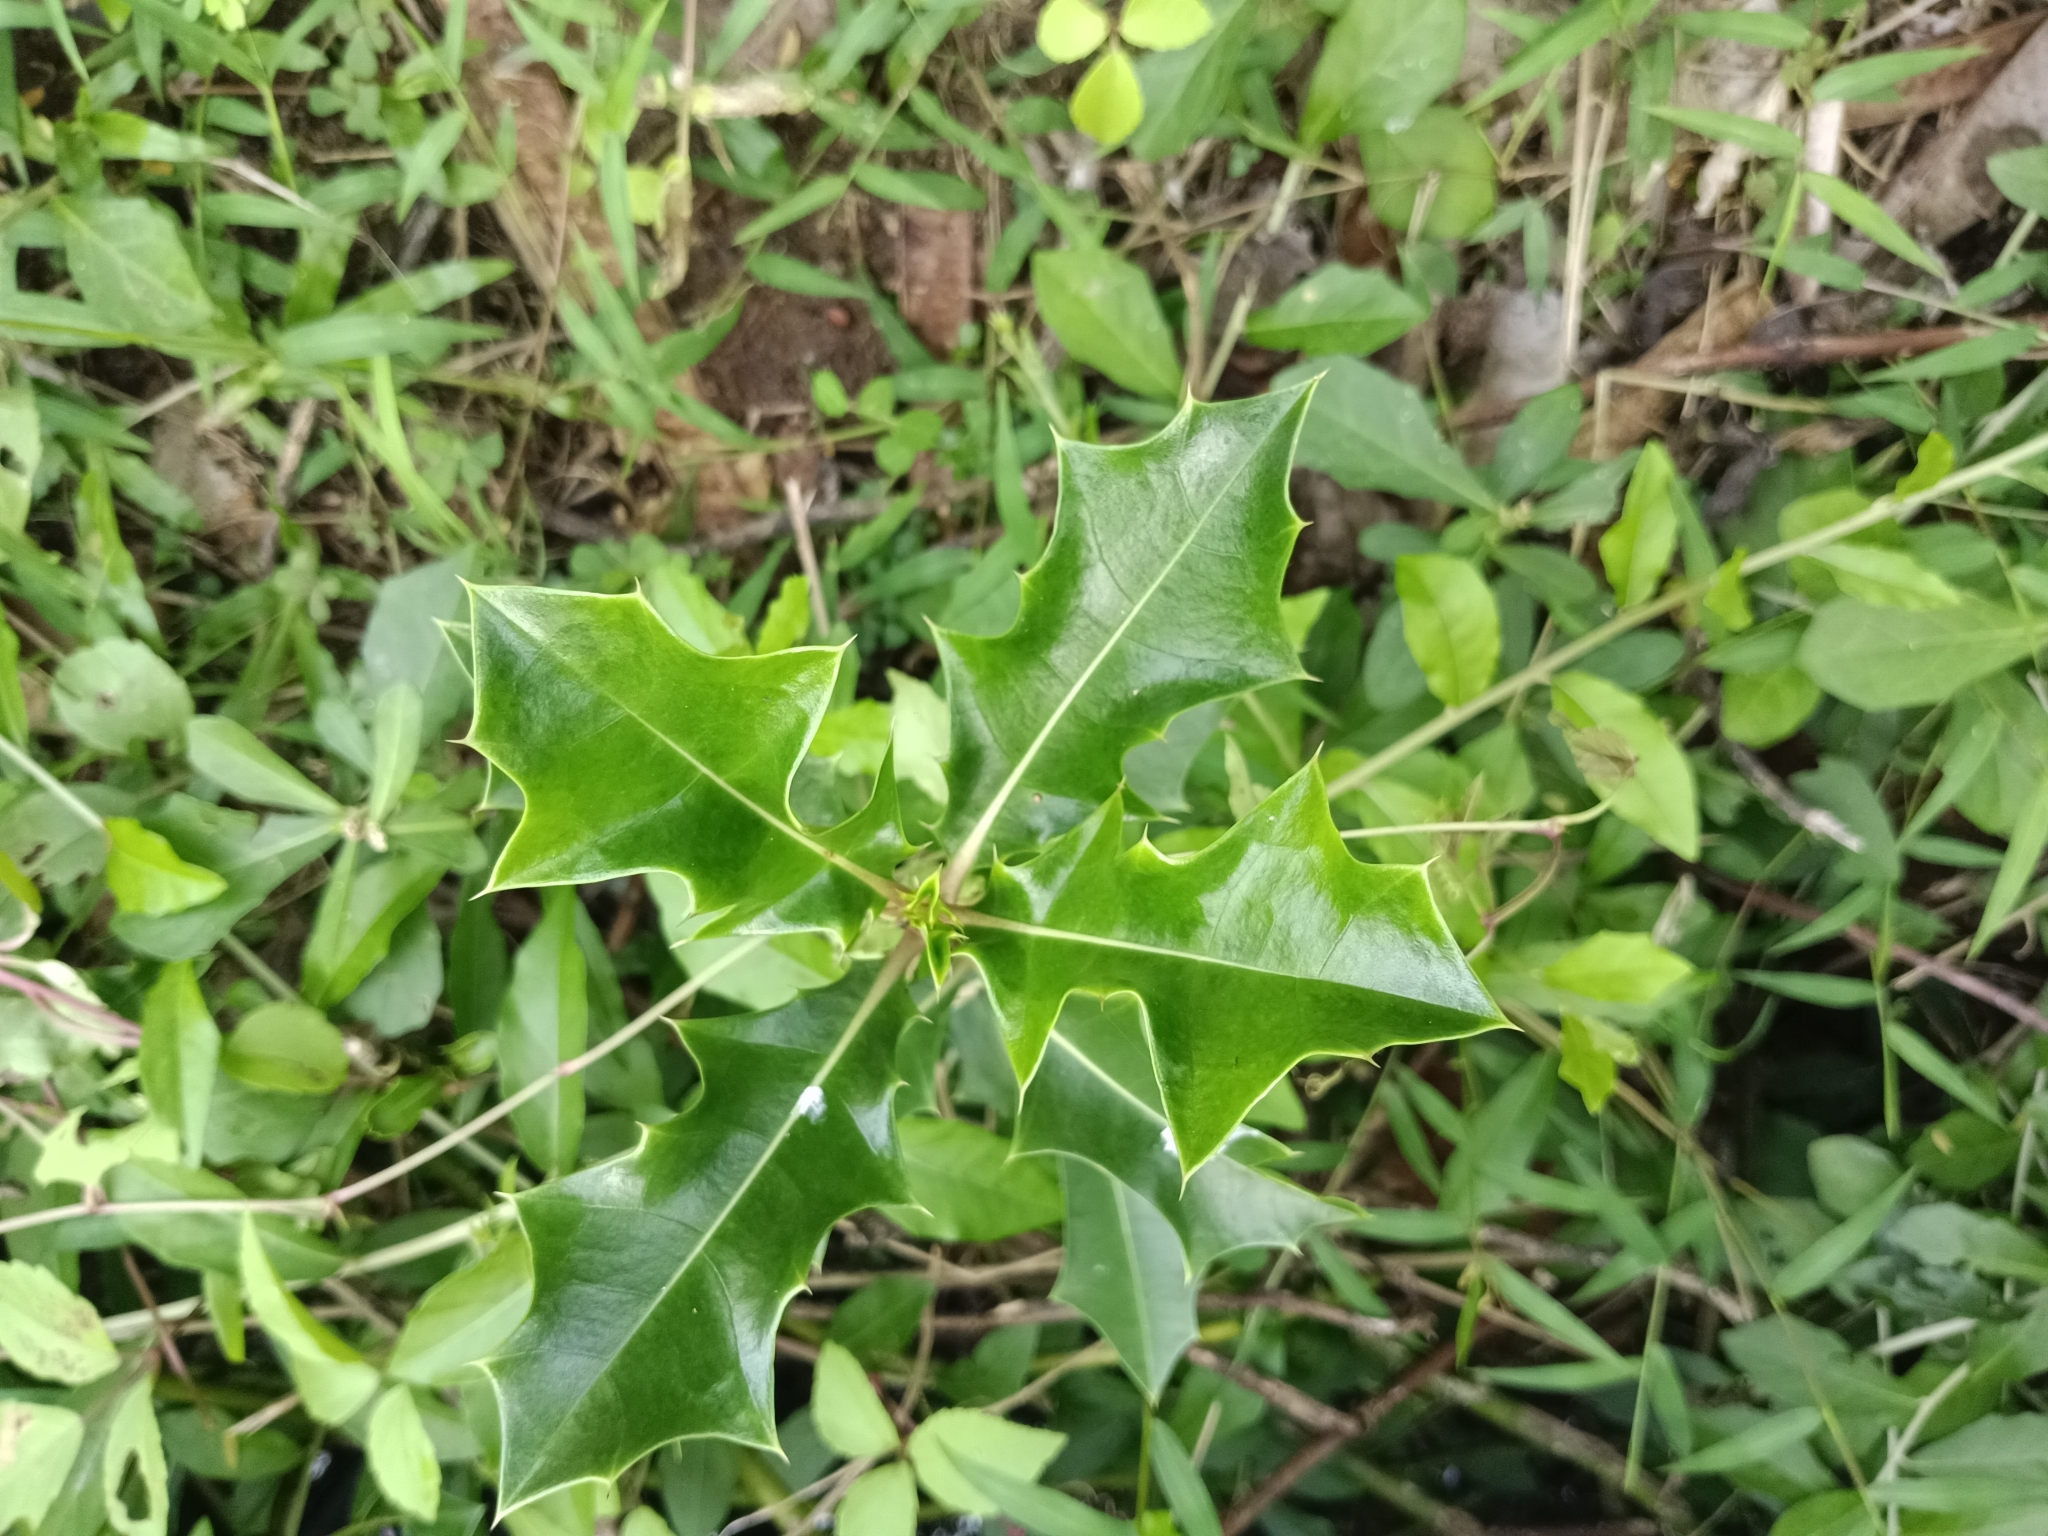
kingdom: Plantae
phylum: Tracheophyta
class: Magnoliopsida
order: Lamiales
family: Acanthaceae
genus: Acanthus
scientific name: Acanthus ilicifolius
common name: Holy mangrove
